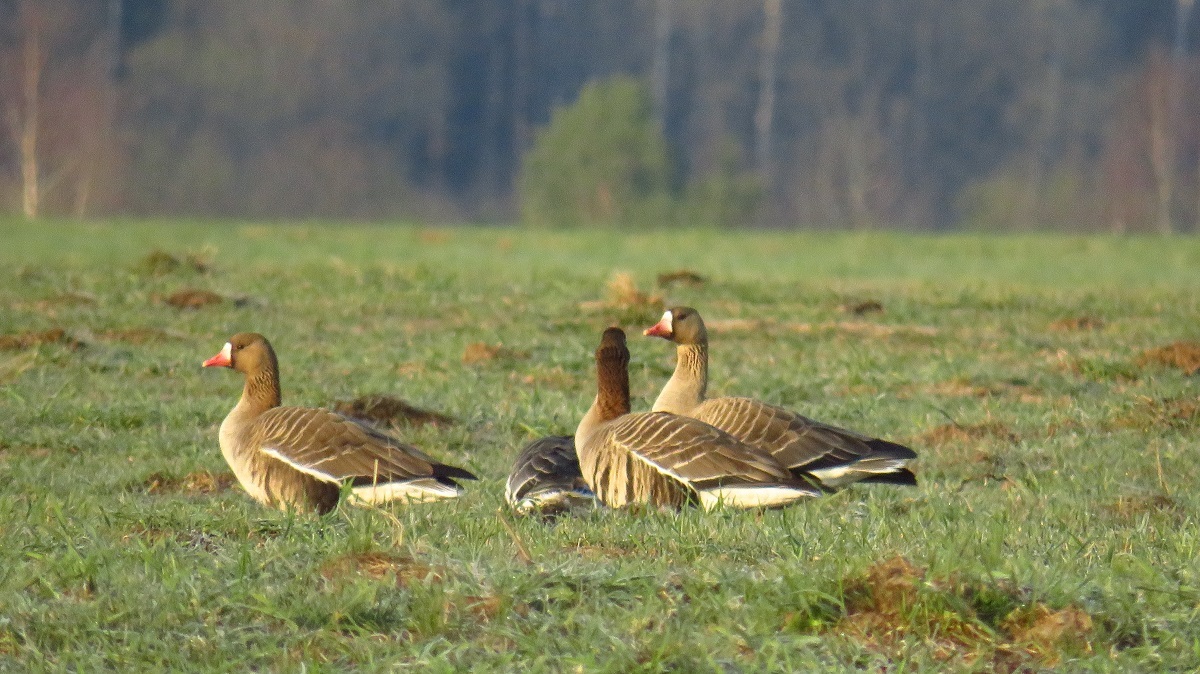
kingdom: Animalia
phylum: Chordata
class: Aves
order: Anseriformes
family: Anatidae
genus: Anser
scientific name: Anser albifrons
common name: Greater white-fronted goose
